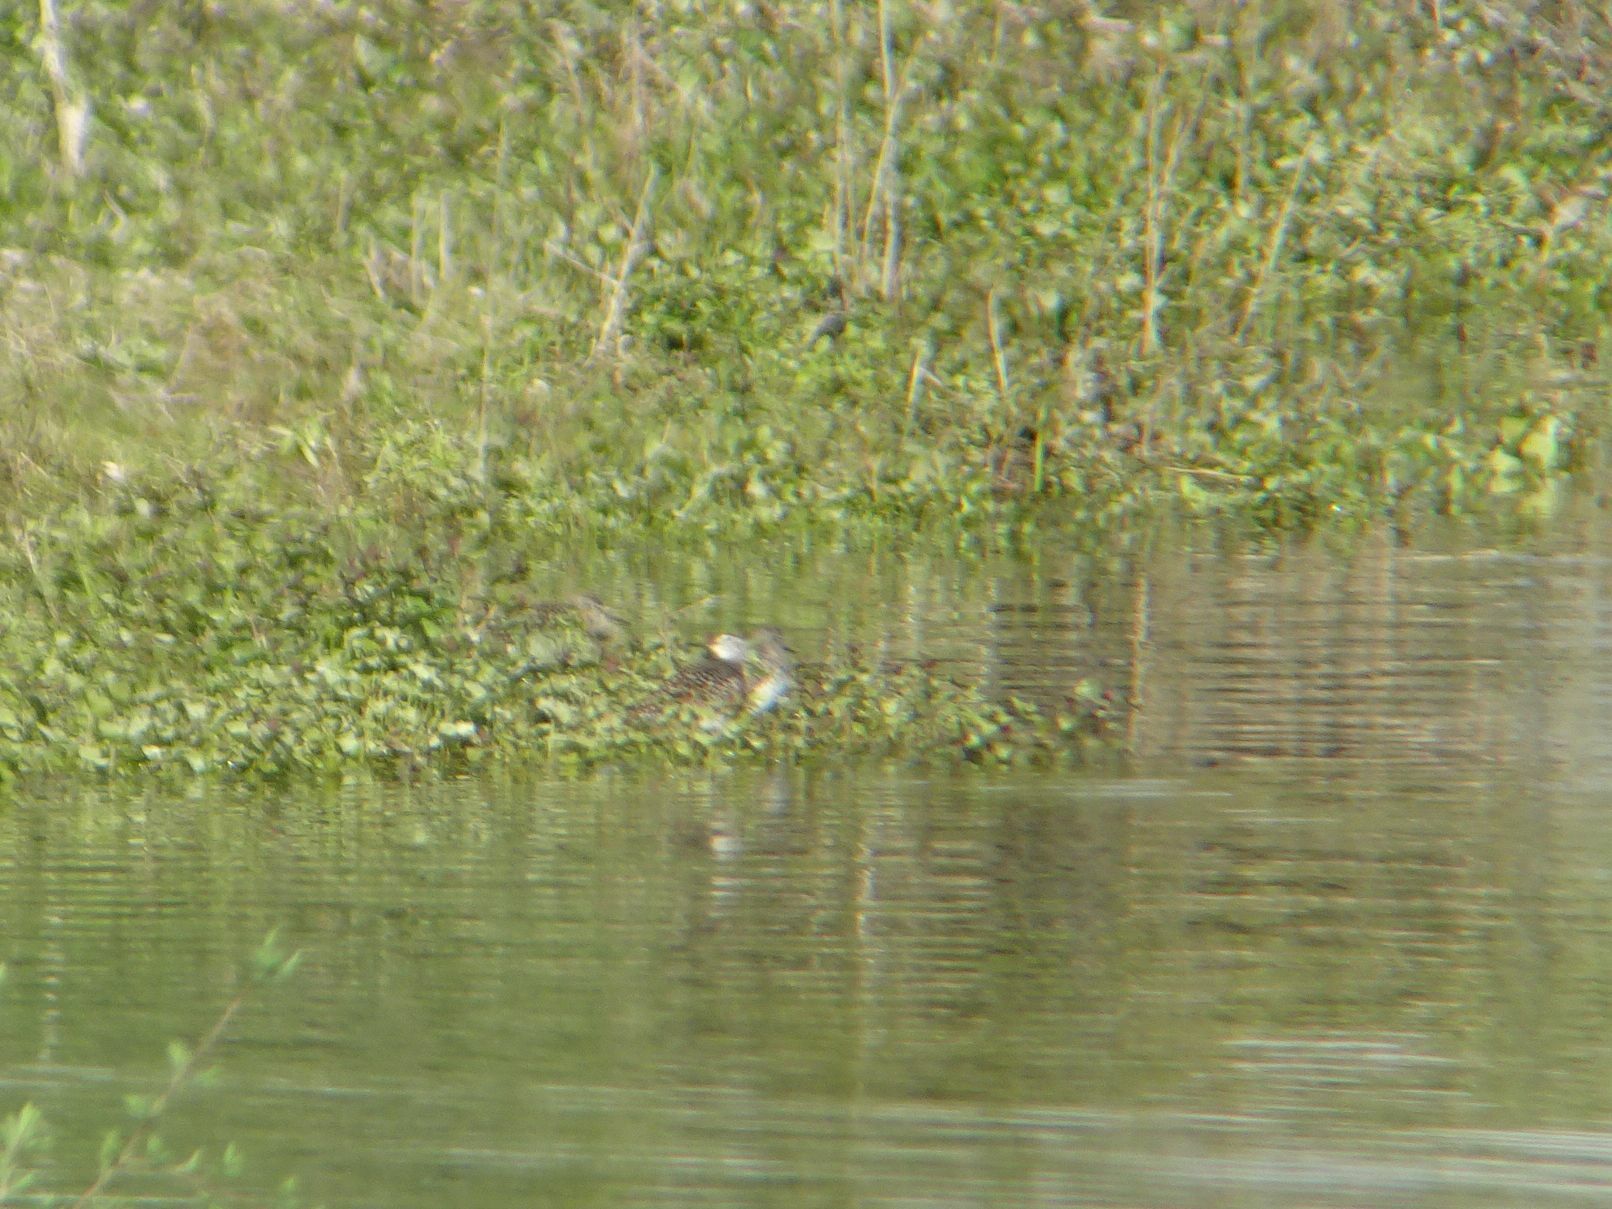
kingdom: Animalia
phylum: Chordata
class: Aves
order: Charadriiformes
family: Scolopacidae
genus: Tringa
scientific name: Tringa glareola
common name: Wood sandpiper
